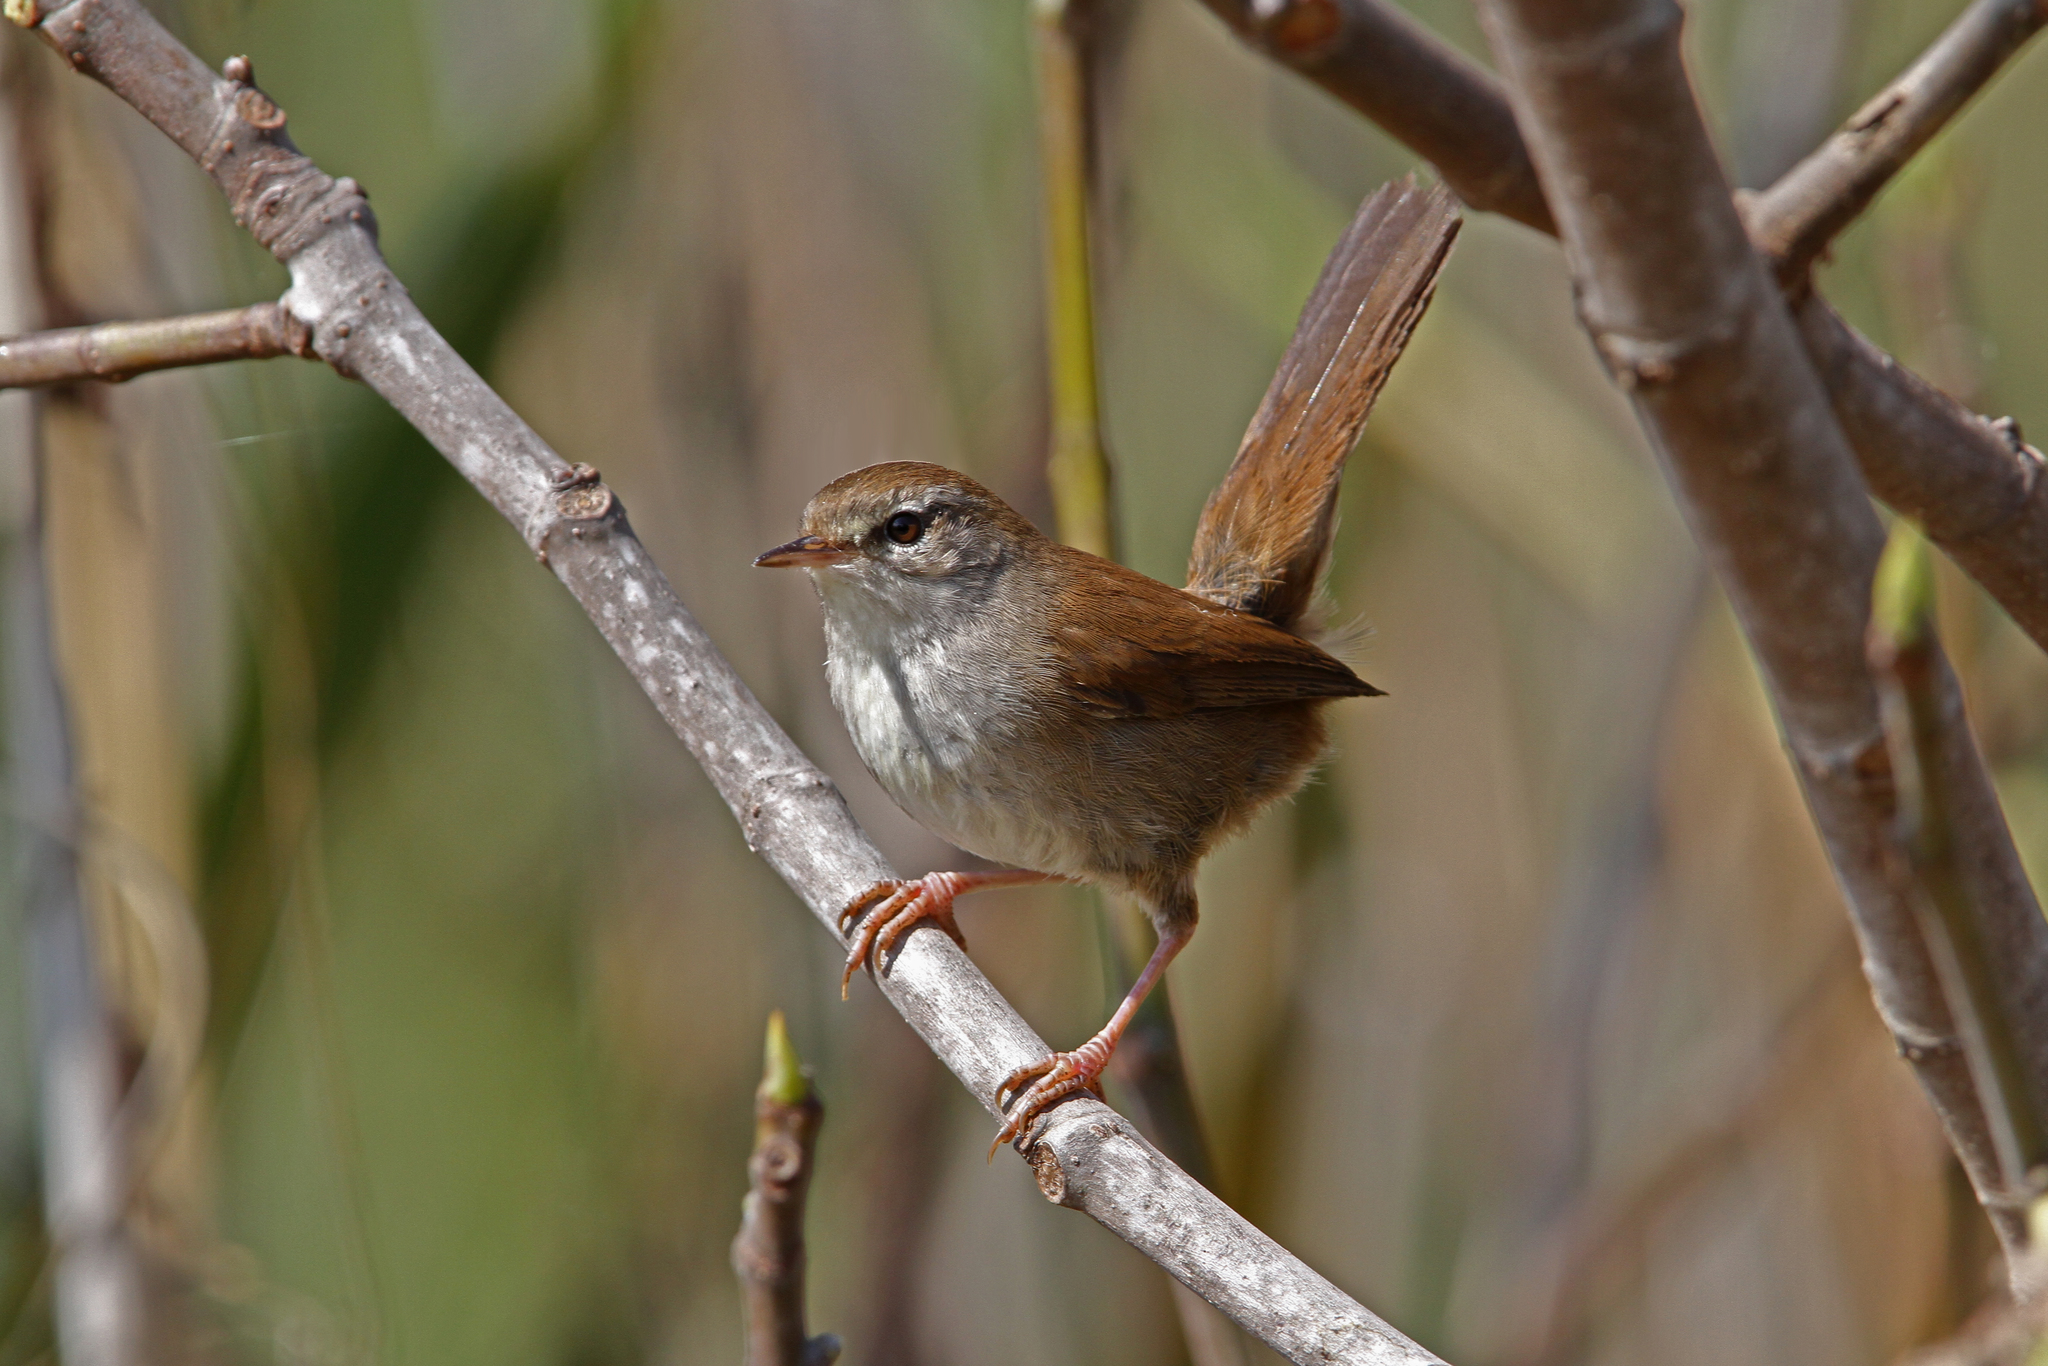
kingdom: Animalia
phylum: Chordata
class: Aves
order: Passeriformes
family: Cettiidae
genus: Cettia
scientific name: Cettia cetti
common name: Cetti's warbler
